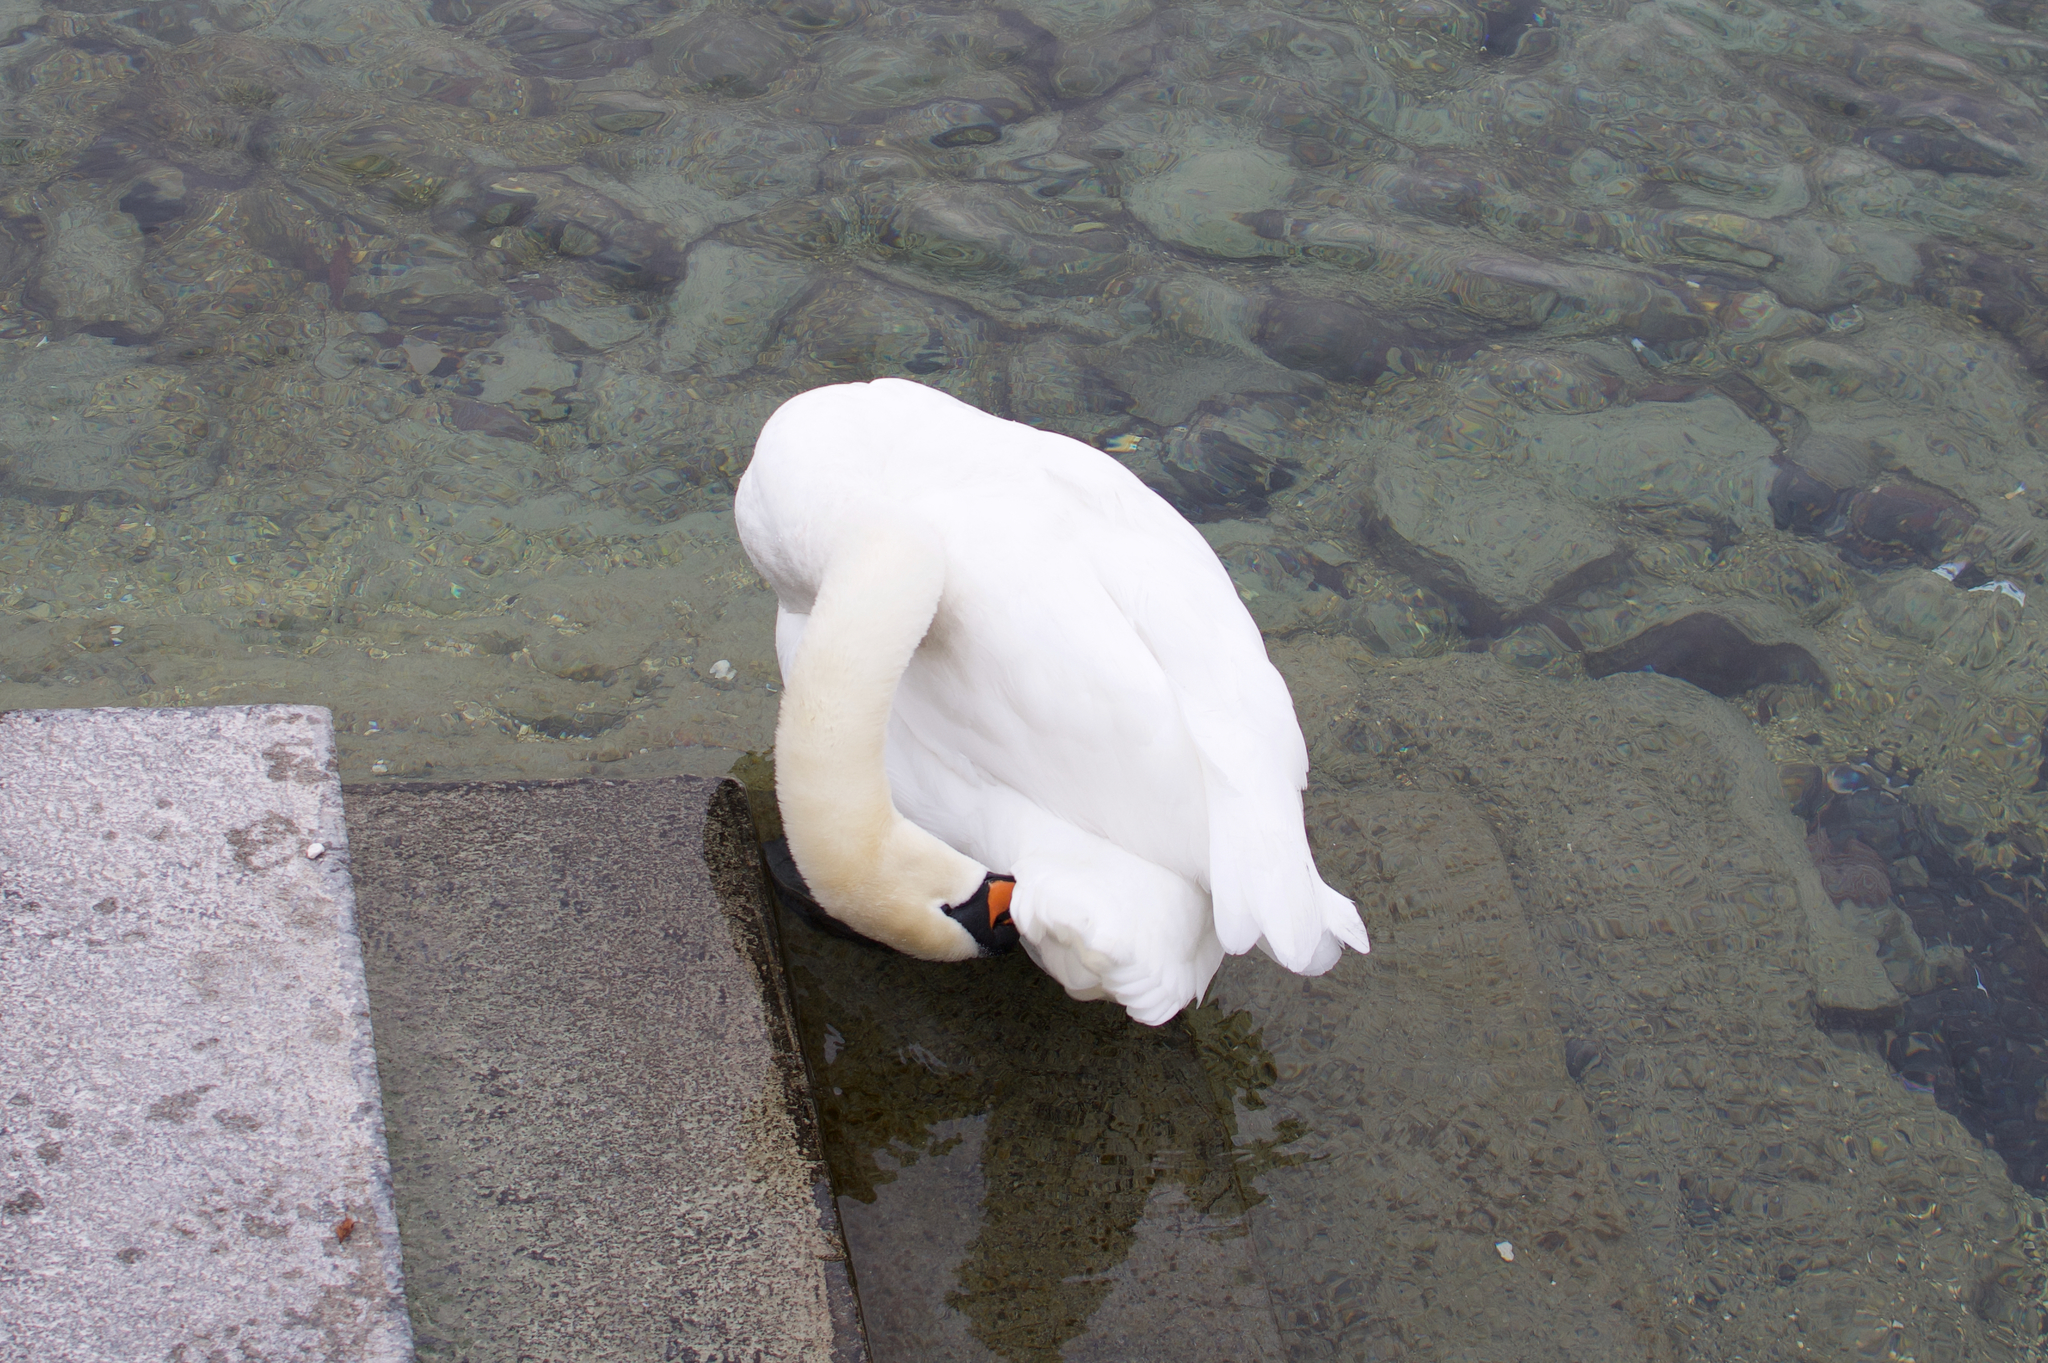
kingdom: Animalia
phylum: Chordata
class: Aves
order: Anseriformes
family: Anatidae
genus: Cygnus
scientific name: Cygnus olor
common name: Mute swan
